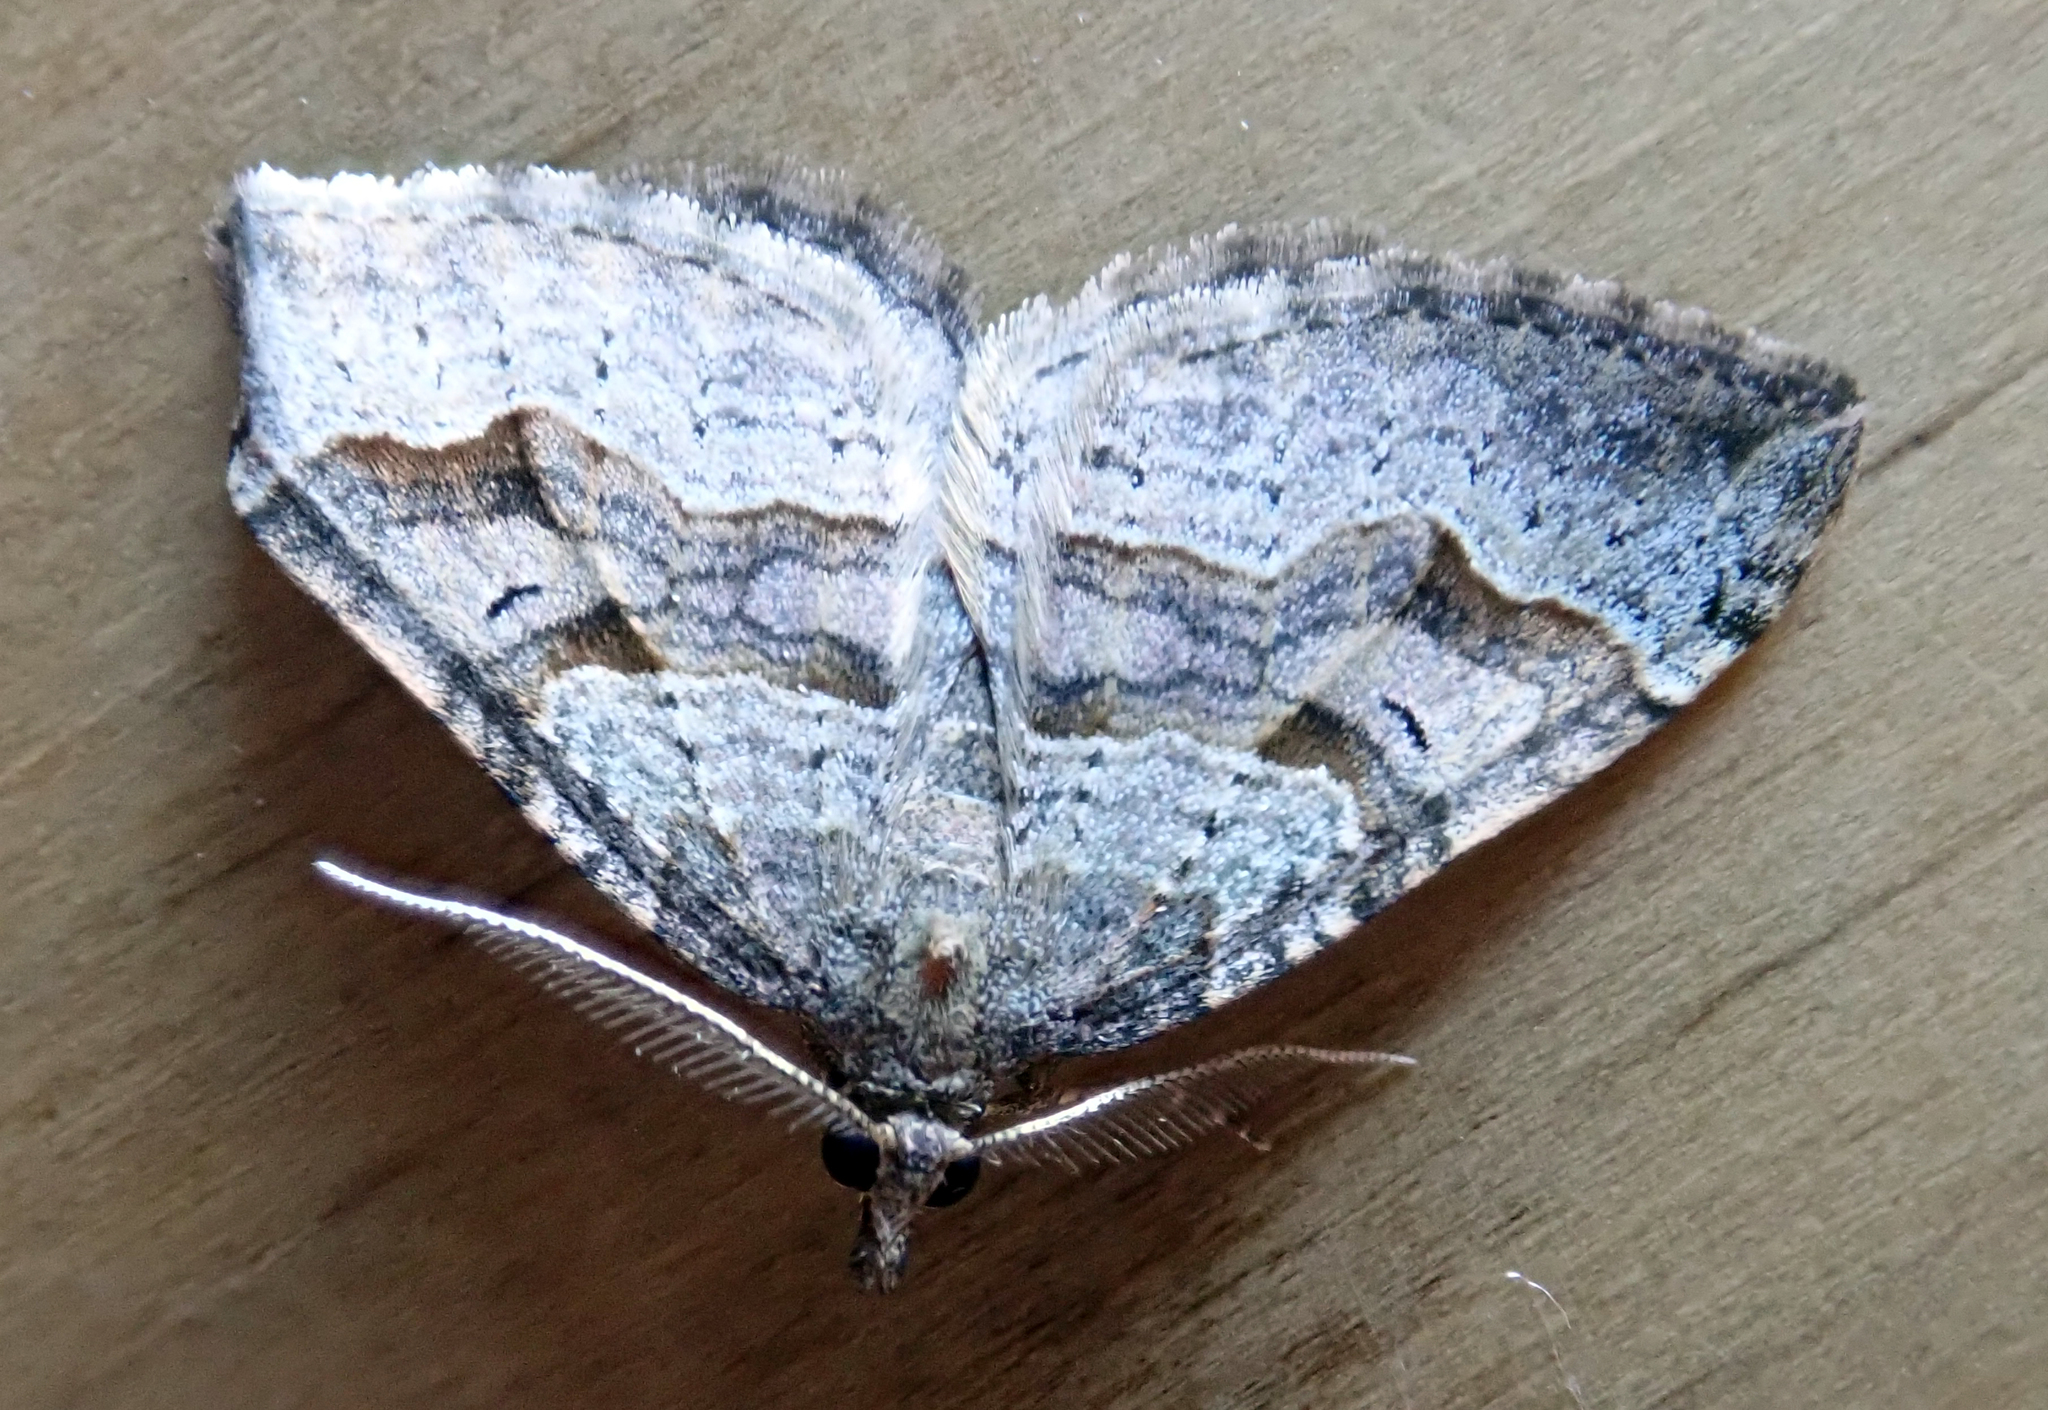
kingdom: Animalia
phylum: Arthropoda
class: Insecta
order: Lepidoptera
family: Geometridae
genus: Epyaxa
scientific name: Epyaxa rosearia
